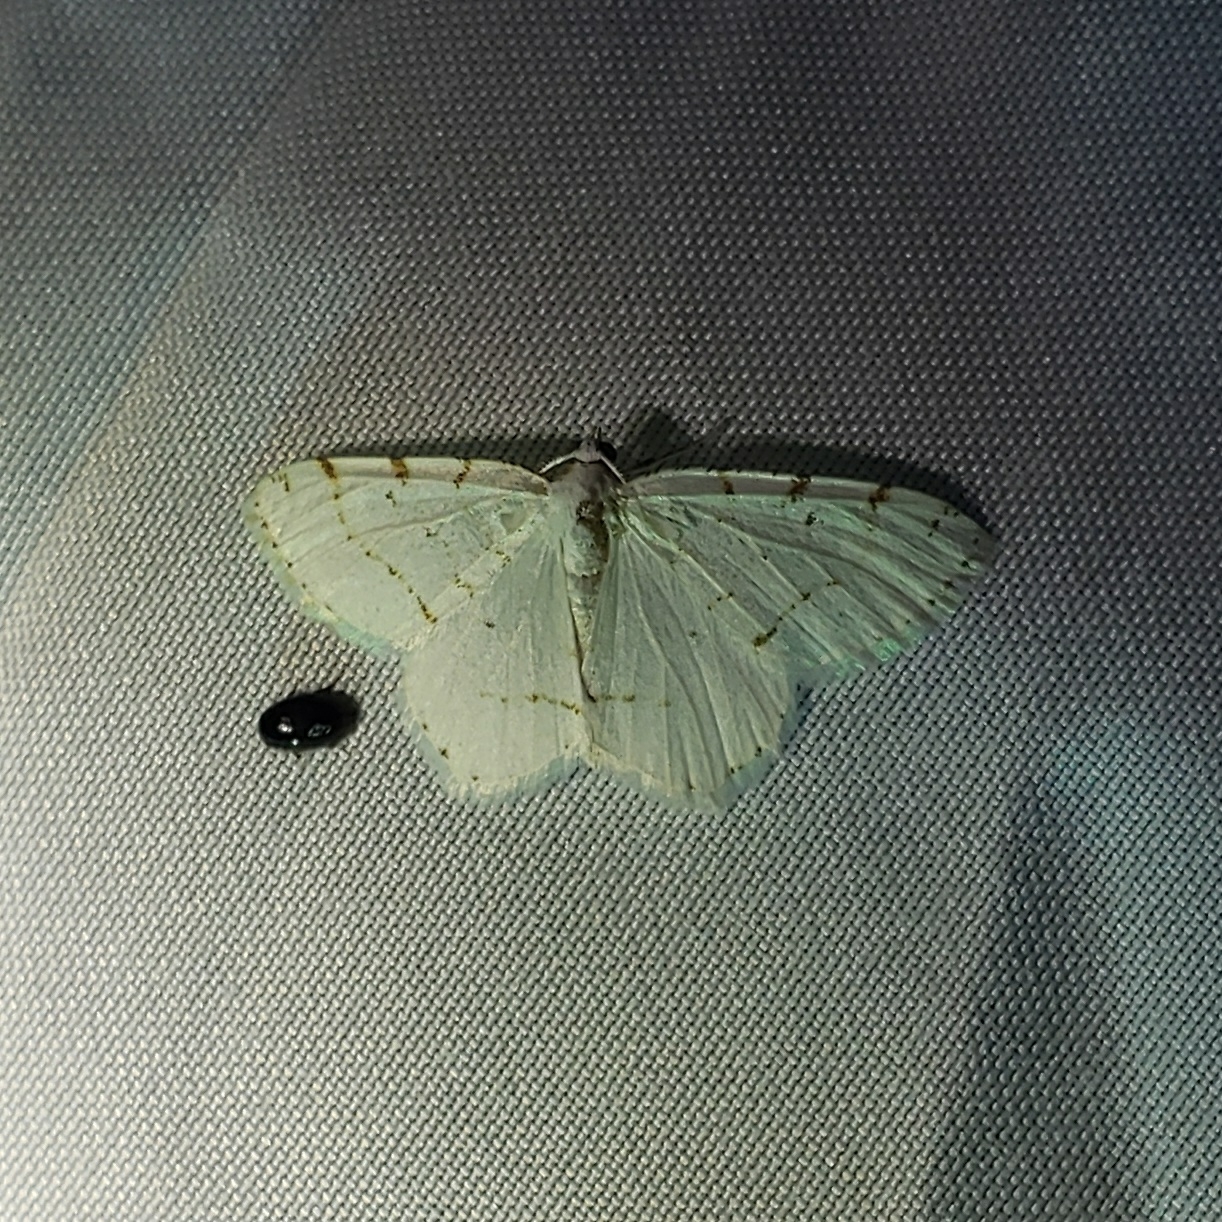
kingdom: Animalia
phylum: Arthropoda
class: Insecta
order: Lepidoptera
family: Geometridae
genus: Macaria
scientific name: Macaria pustularia
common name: Lesser maple spanworm moth
